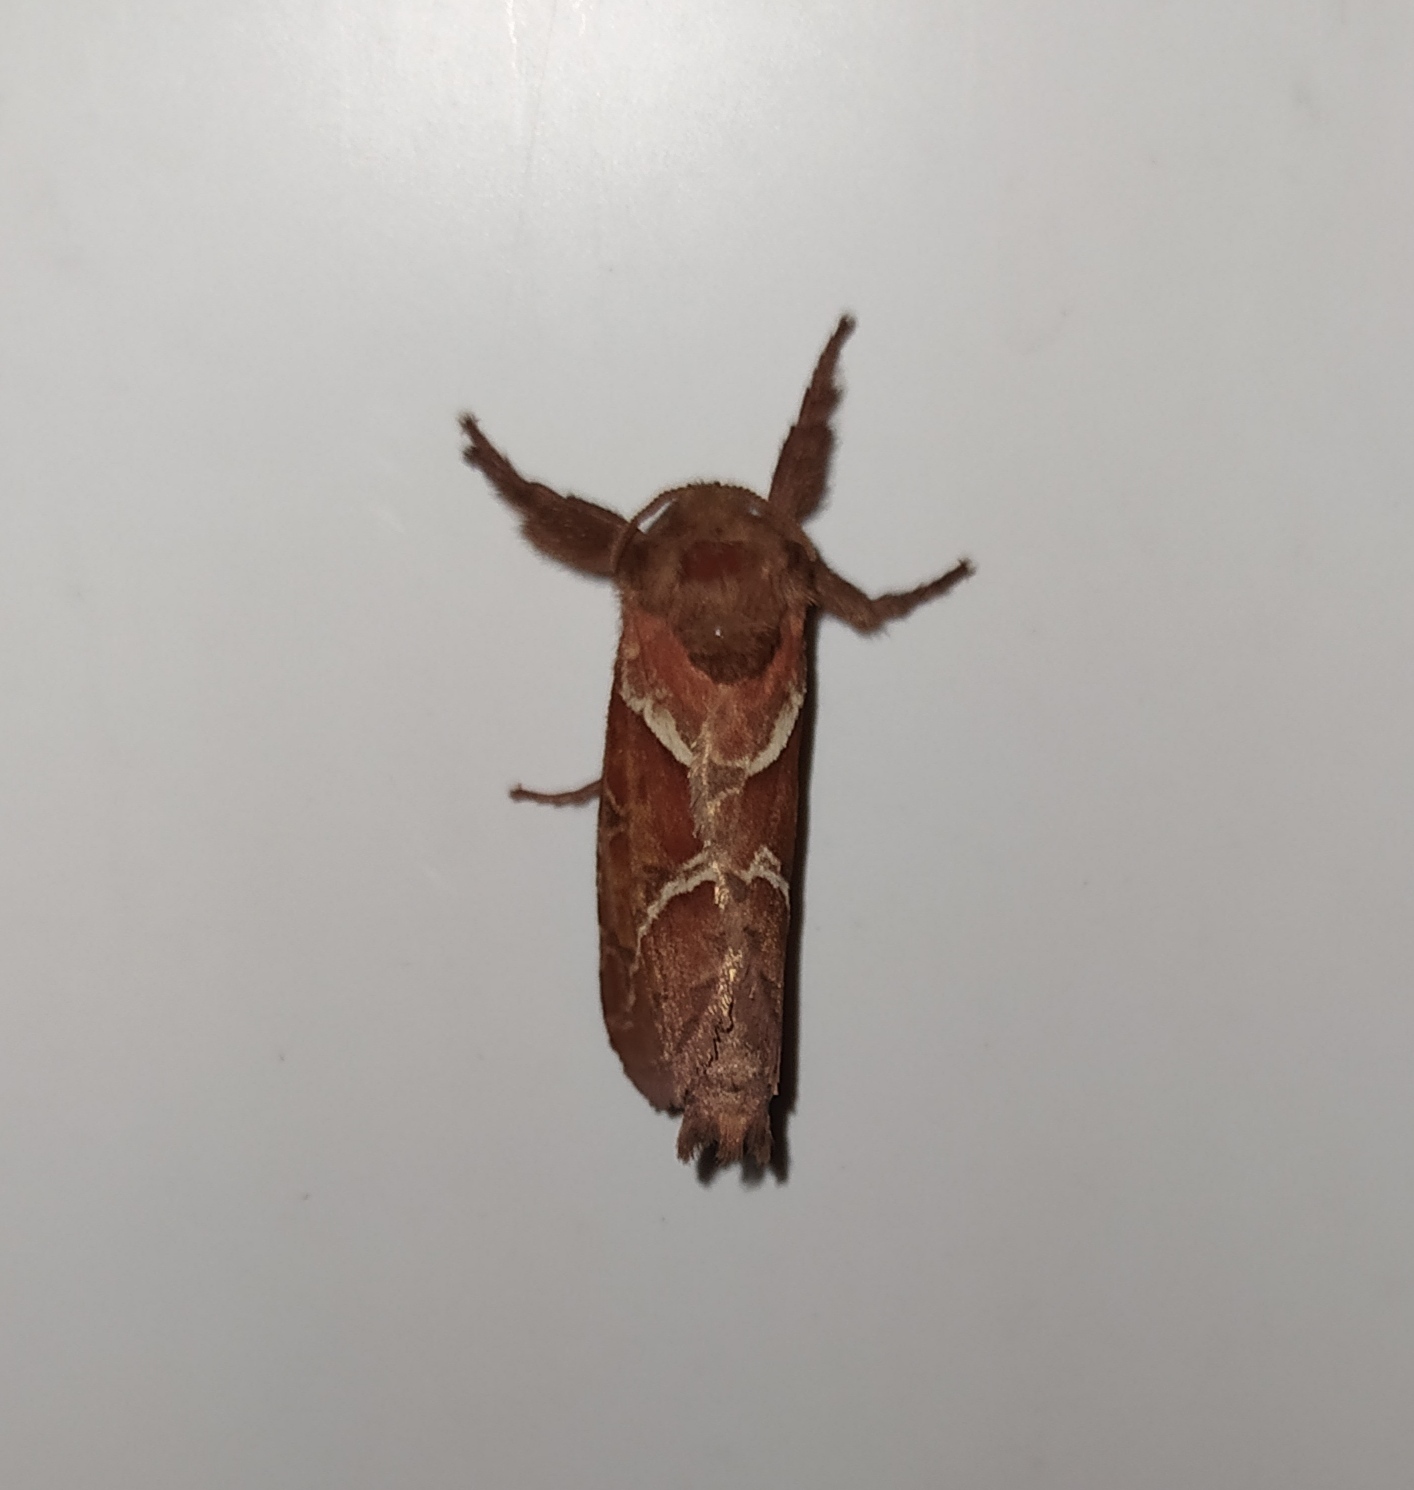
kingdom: Animalia
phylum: Arthropoda
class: Insecta
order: Lepidoptera
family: Hepialidae
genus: Triodia
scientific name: Triodia sylvina
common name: Orange swift
